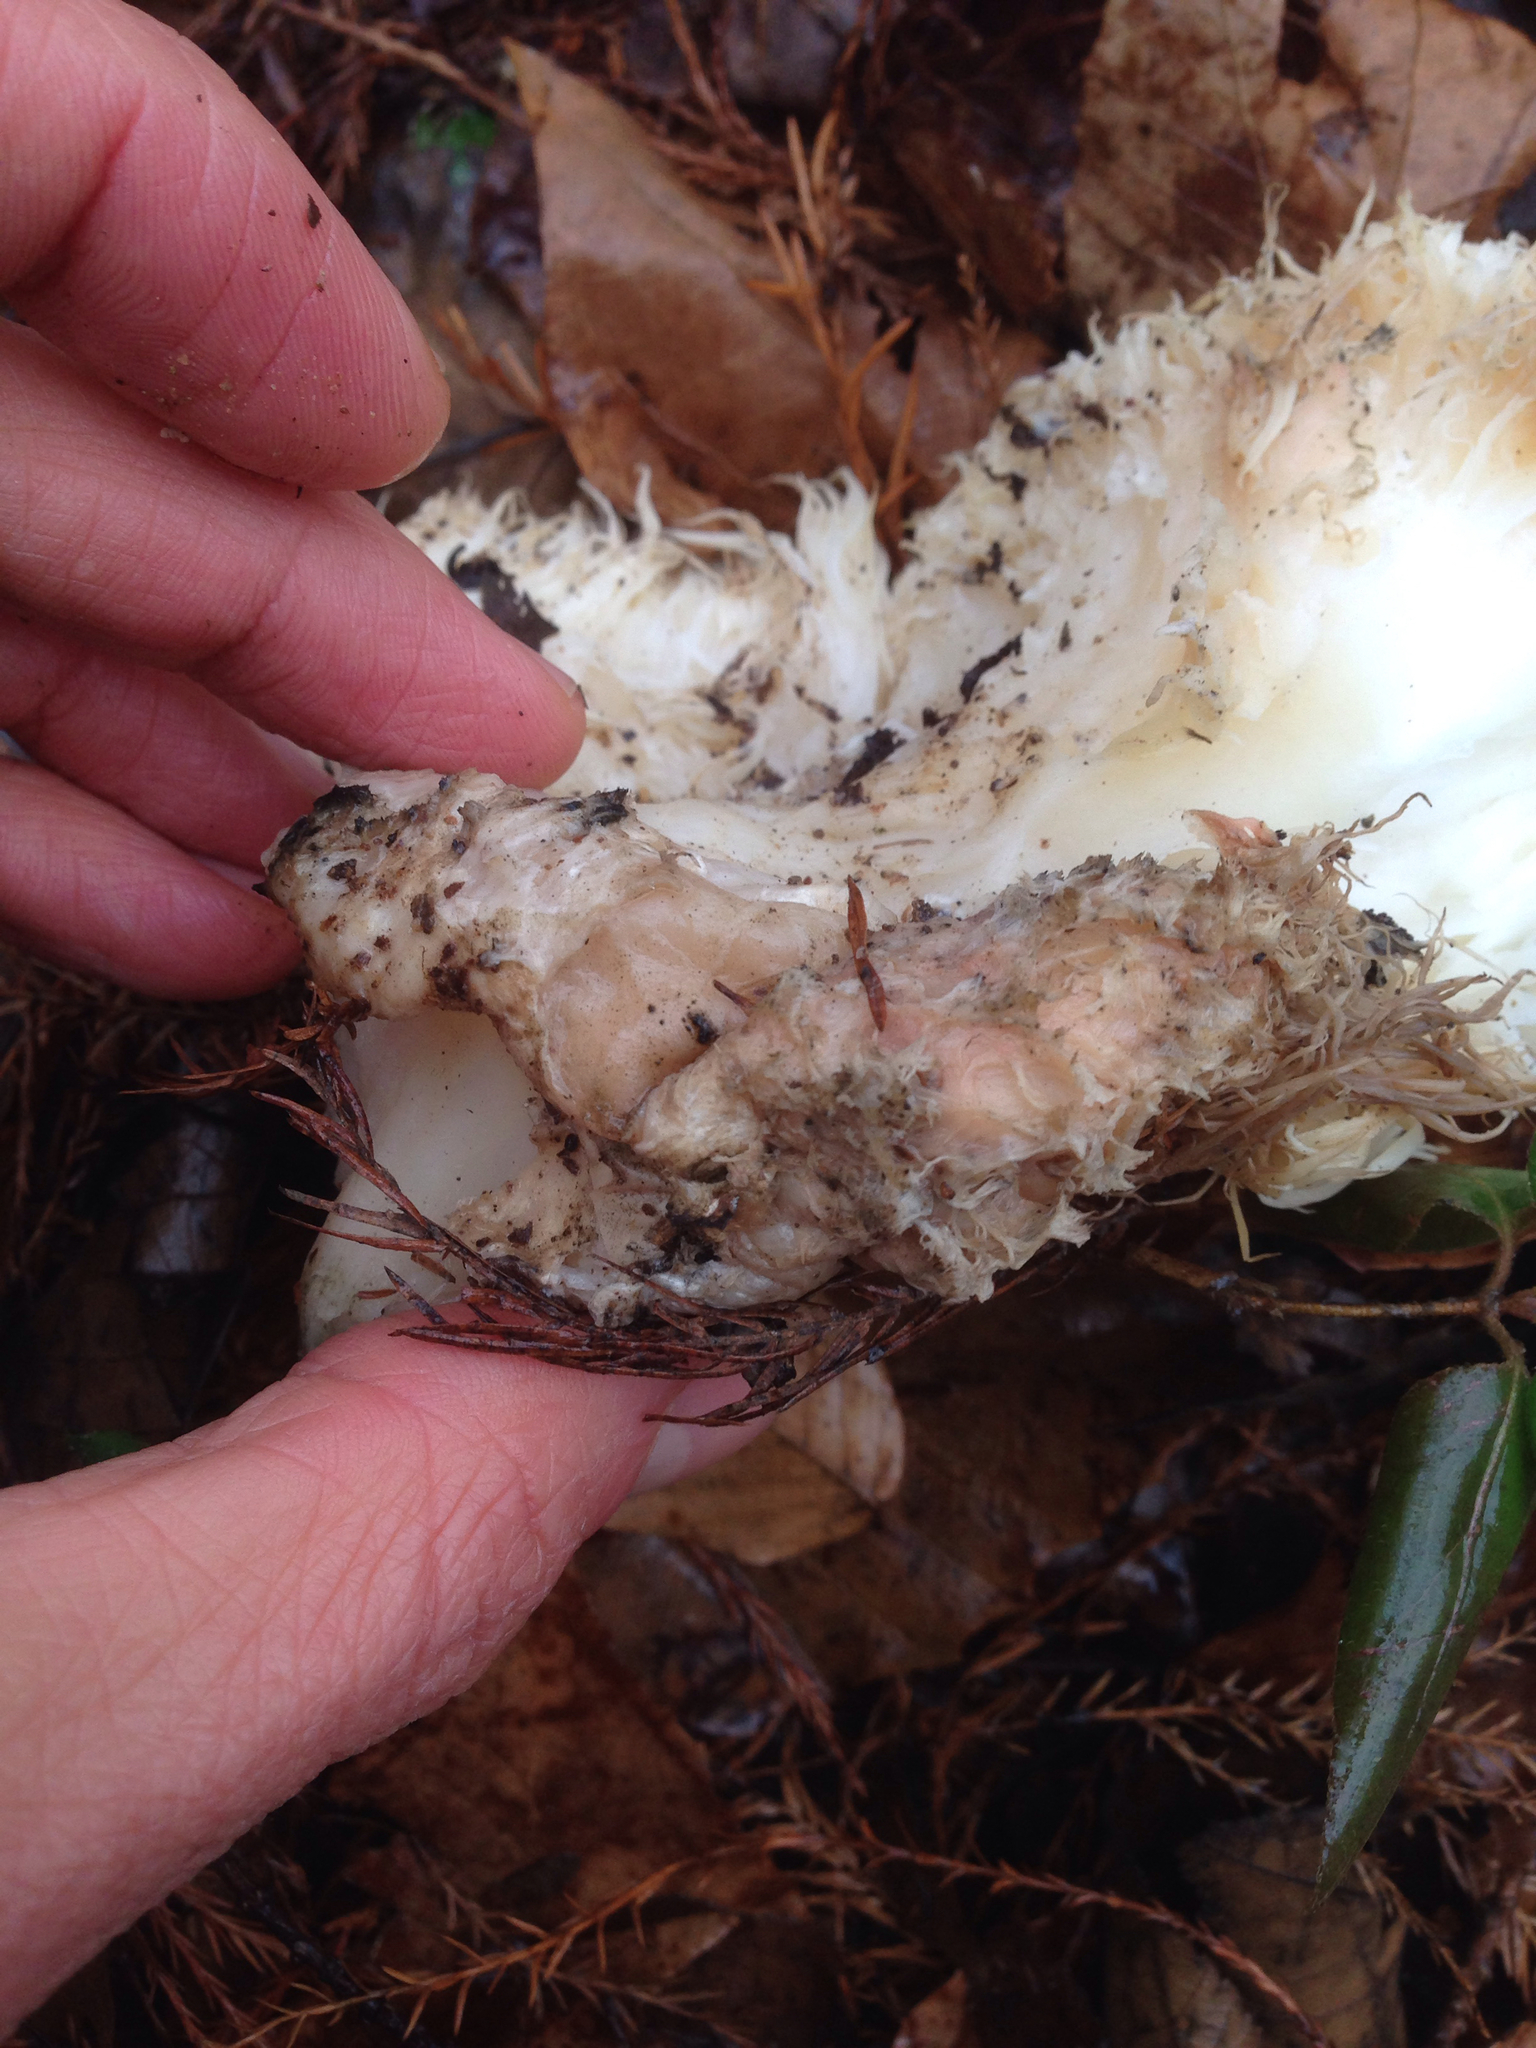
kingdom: Fungi
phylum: Basidiomycota
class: Agaricomycetes
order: Russulales
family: Hericiaceae
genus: Hericium
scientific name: Hericium erinaceus
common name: Bearded tooth
